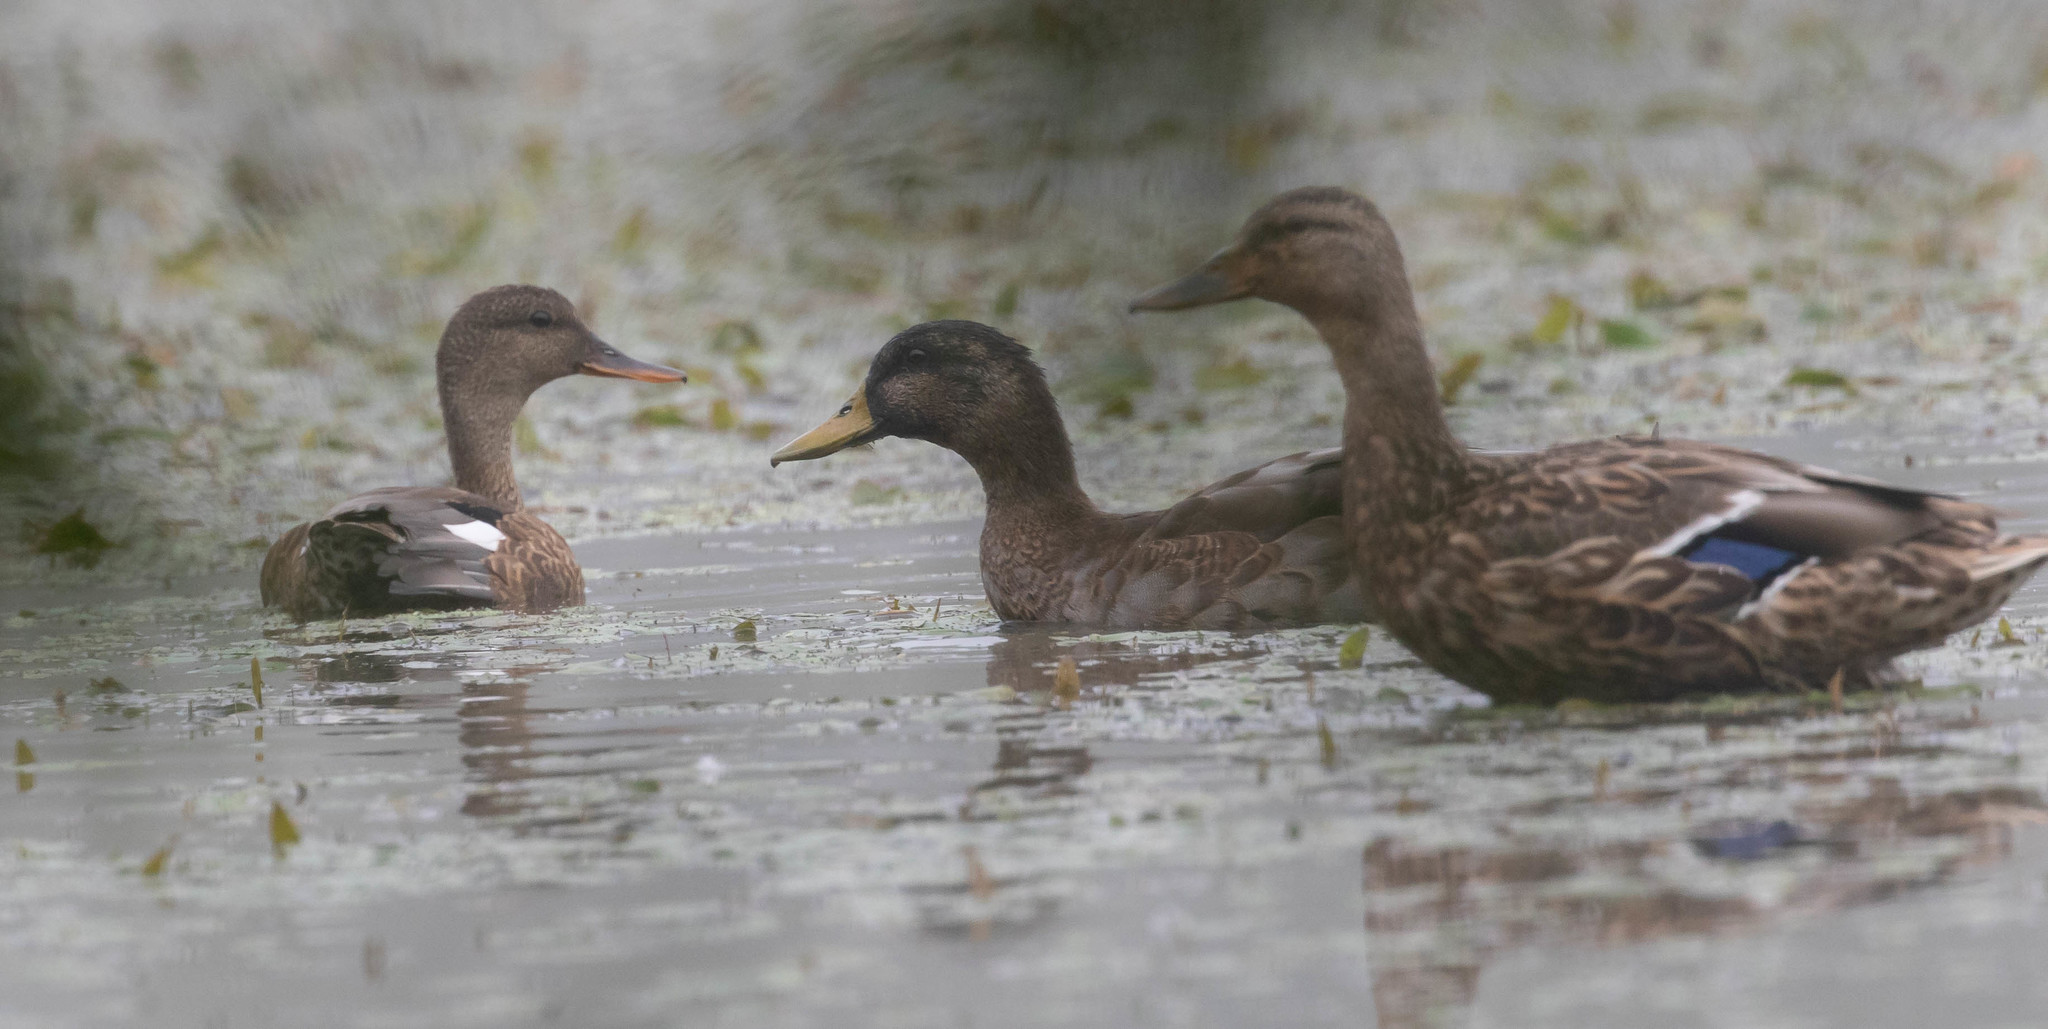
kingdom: Animalia
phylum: Chordata
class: Aves
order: Anseriformes
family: Anatidae
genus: Mareca
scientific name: Mareca strepera
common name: Gadwall
